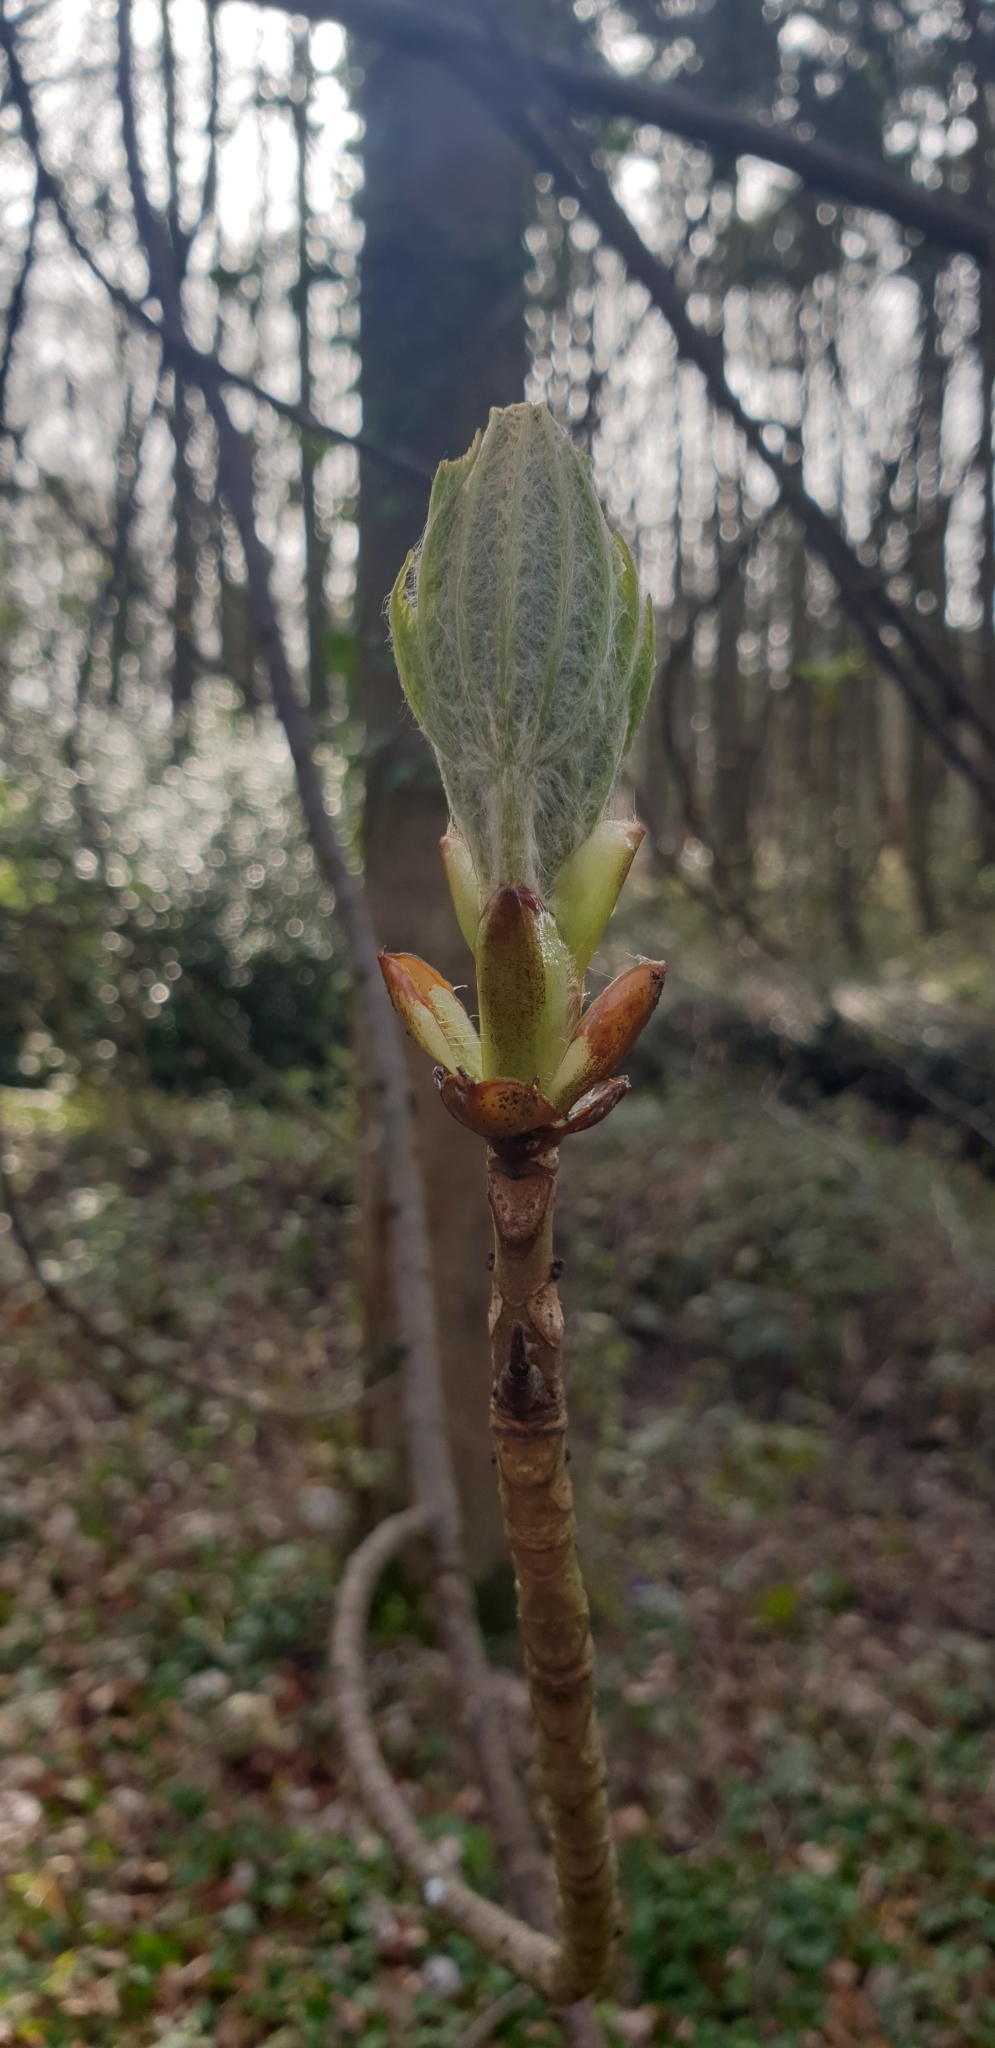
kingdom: Plantae
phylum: Tracheophyta
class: Magnoliopsida
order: Sapindales
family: Sapindaceae
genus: Aesculus
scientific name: Aesculus hippocastanum
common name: Horse-chestnut
